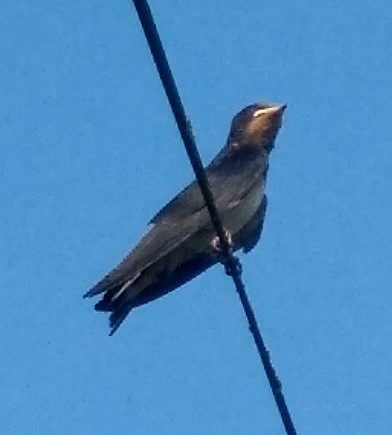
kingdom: Animalia
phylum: Chordata
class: Aves
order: Passeriformes
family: Hirundinidae
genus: Hirundo
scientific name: Hirundo rustica
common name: Barn swallow
